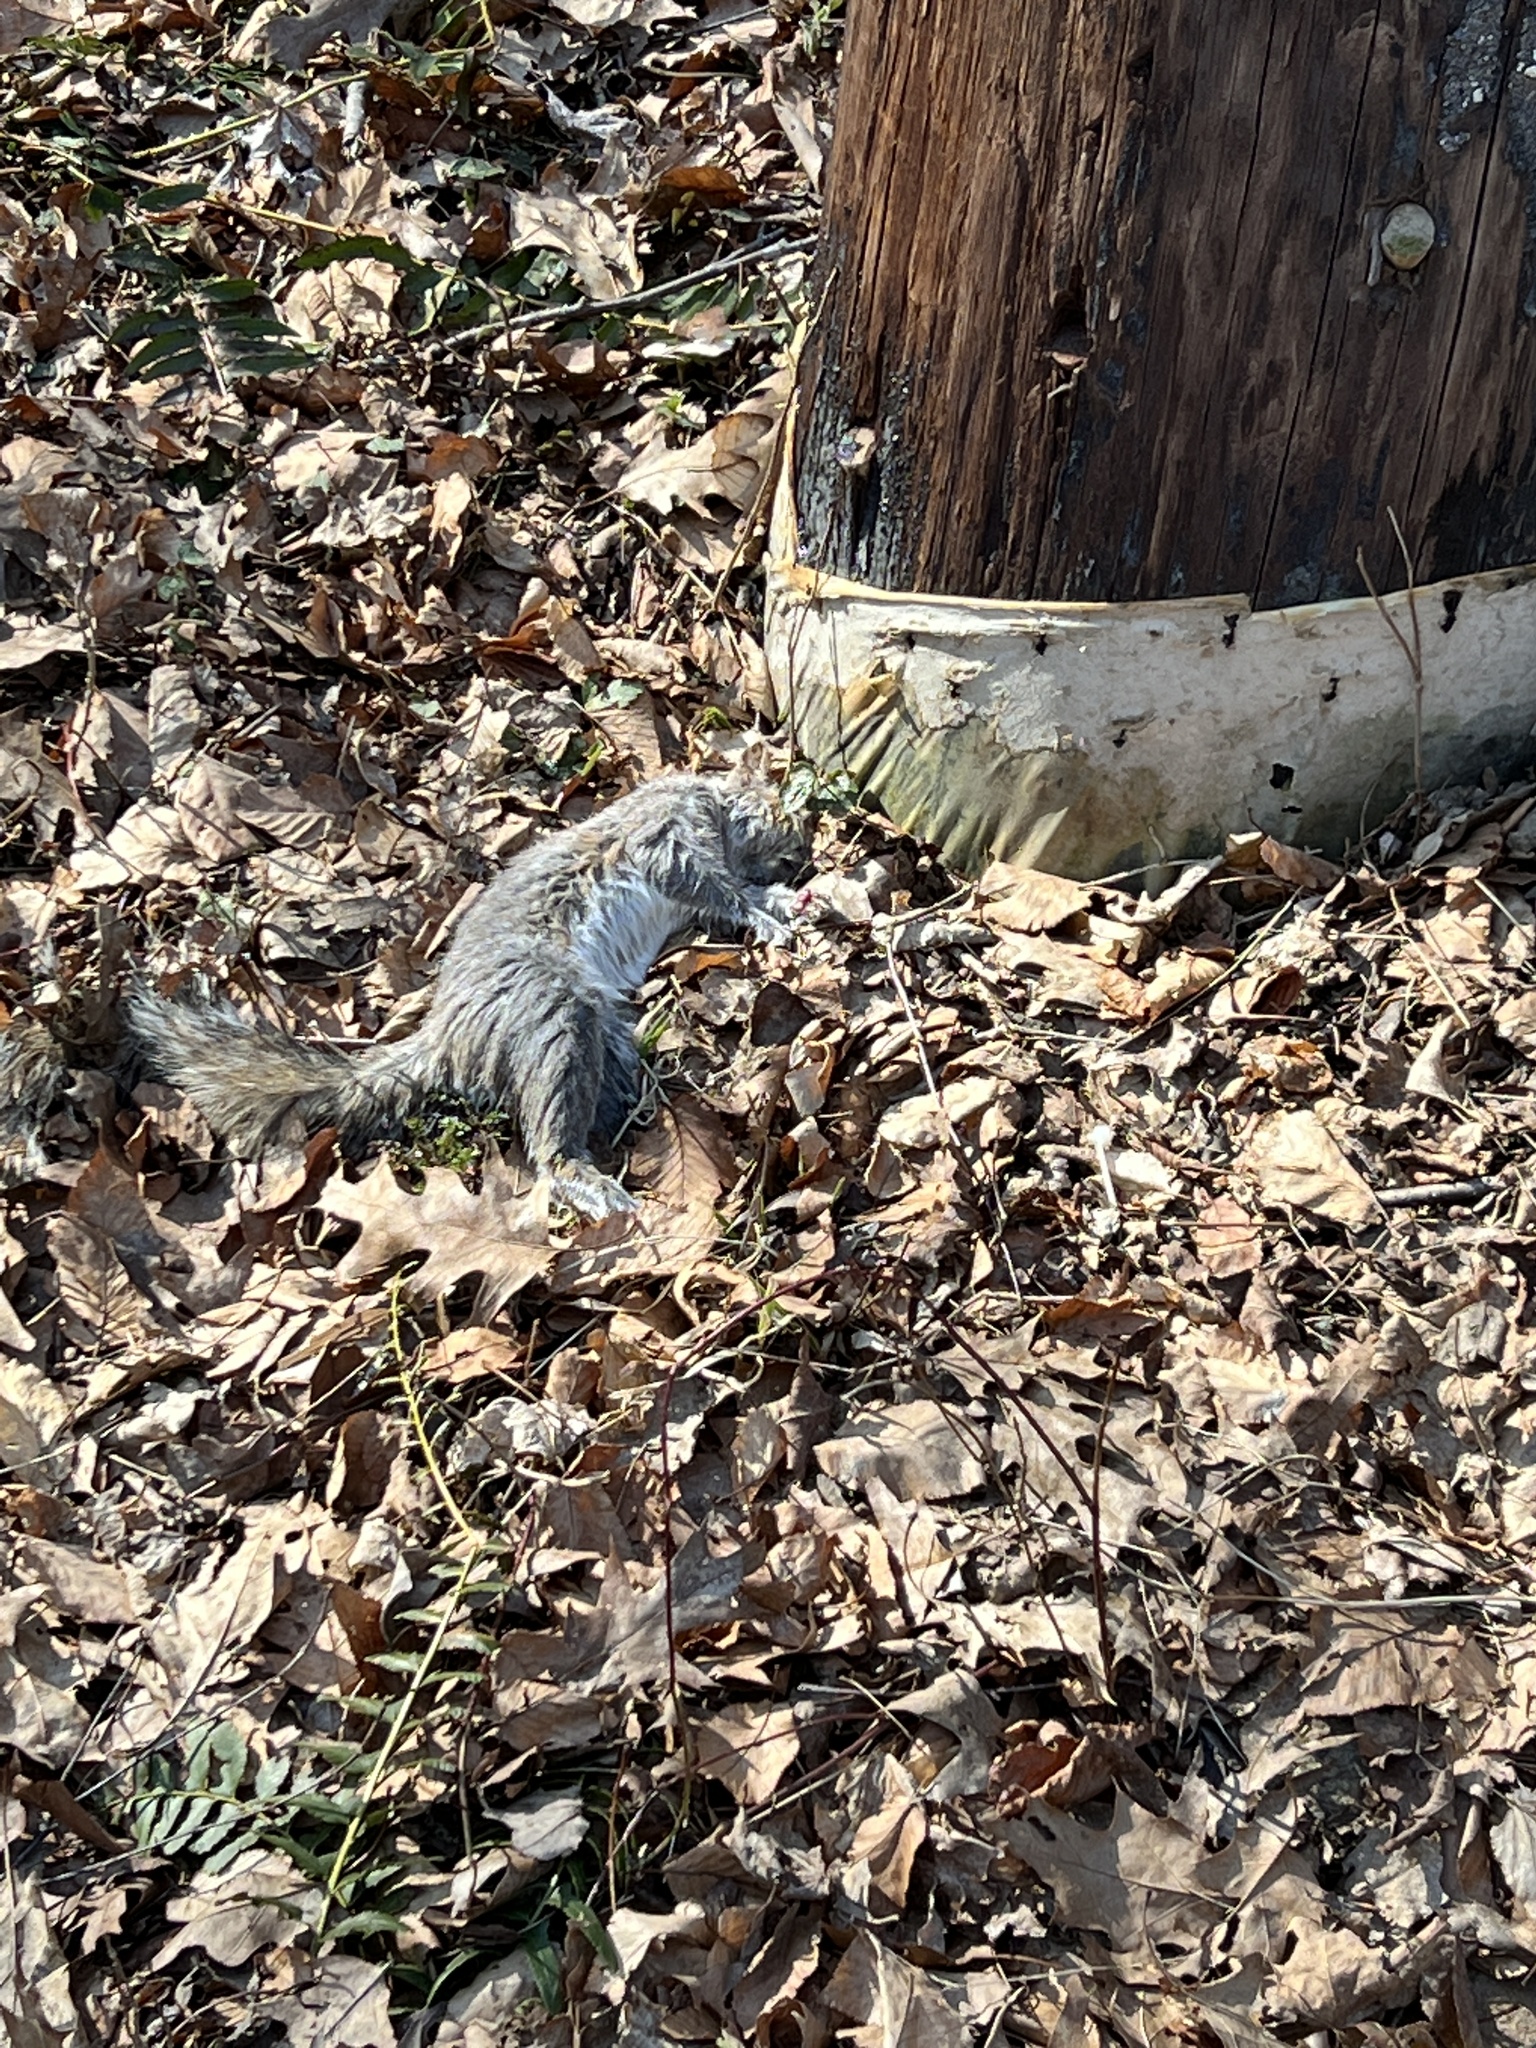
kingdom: Animalia
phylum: Chordata
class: Mammalia
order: Rodentia
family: Sciuridae
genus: Sciurus
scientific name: Sciurus carolinensis
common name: Eastern gray squirrel
